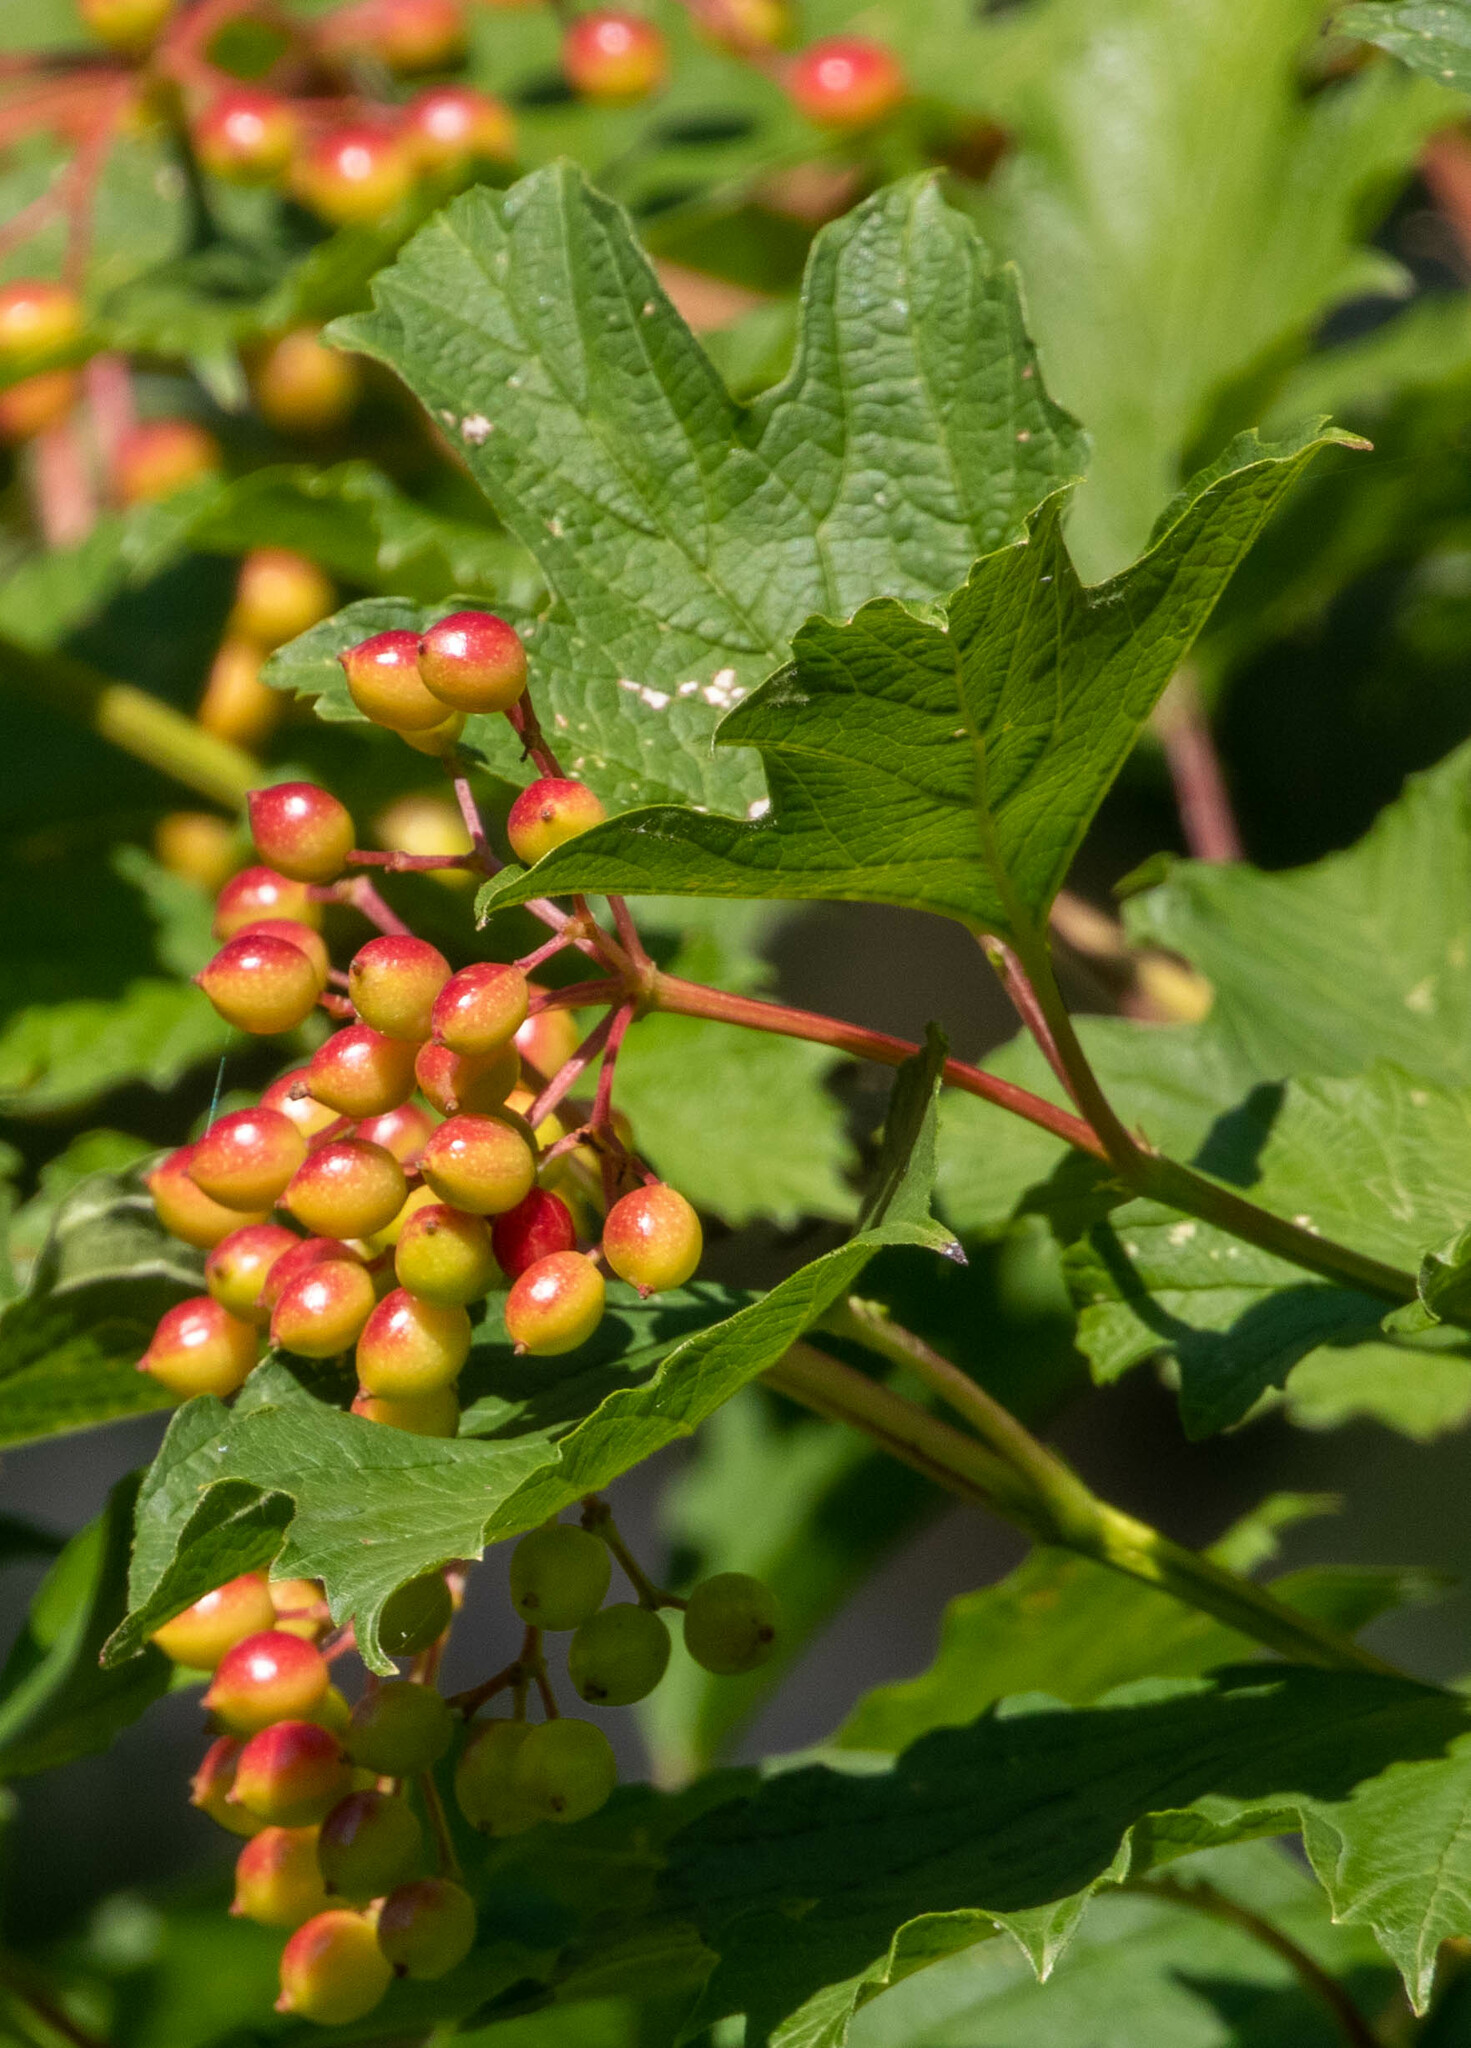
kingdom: Plantae
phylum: Tracheophyta
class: Magnoliopsida
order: Dipsacales
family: Viburnaceae
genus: Viburnum
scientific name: Viburnum opulus
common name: Guelder-rose
